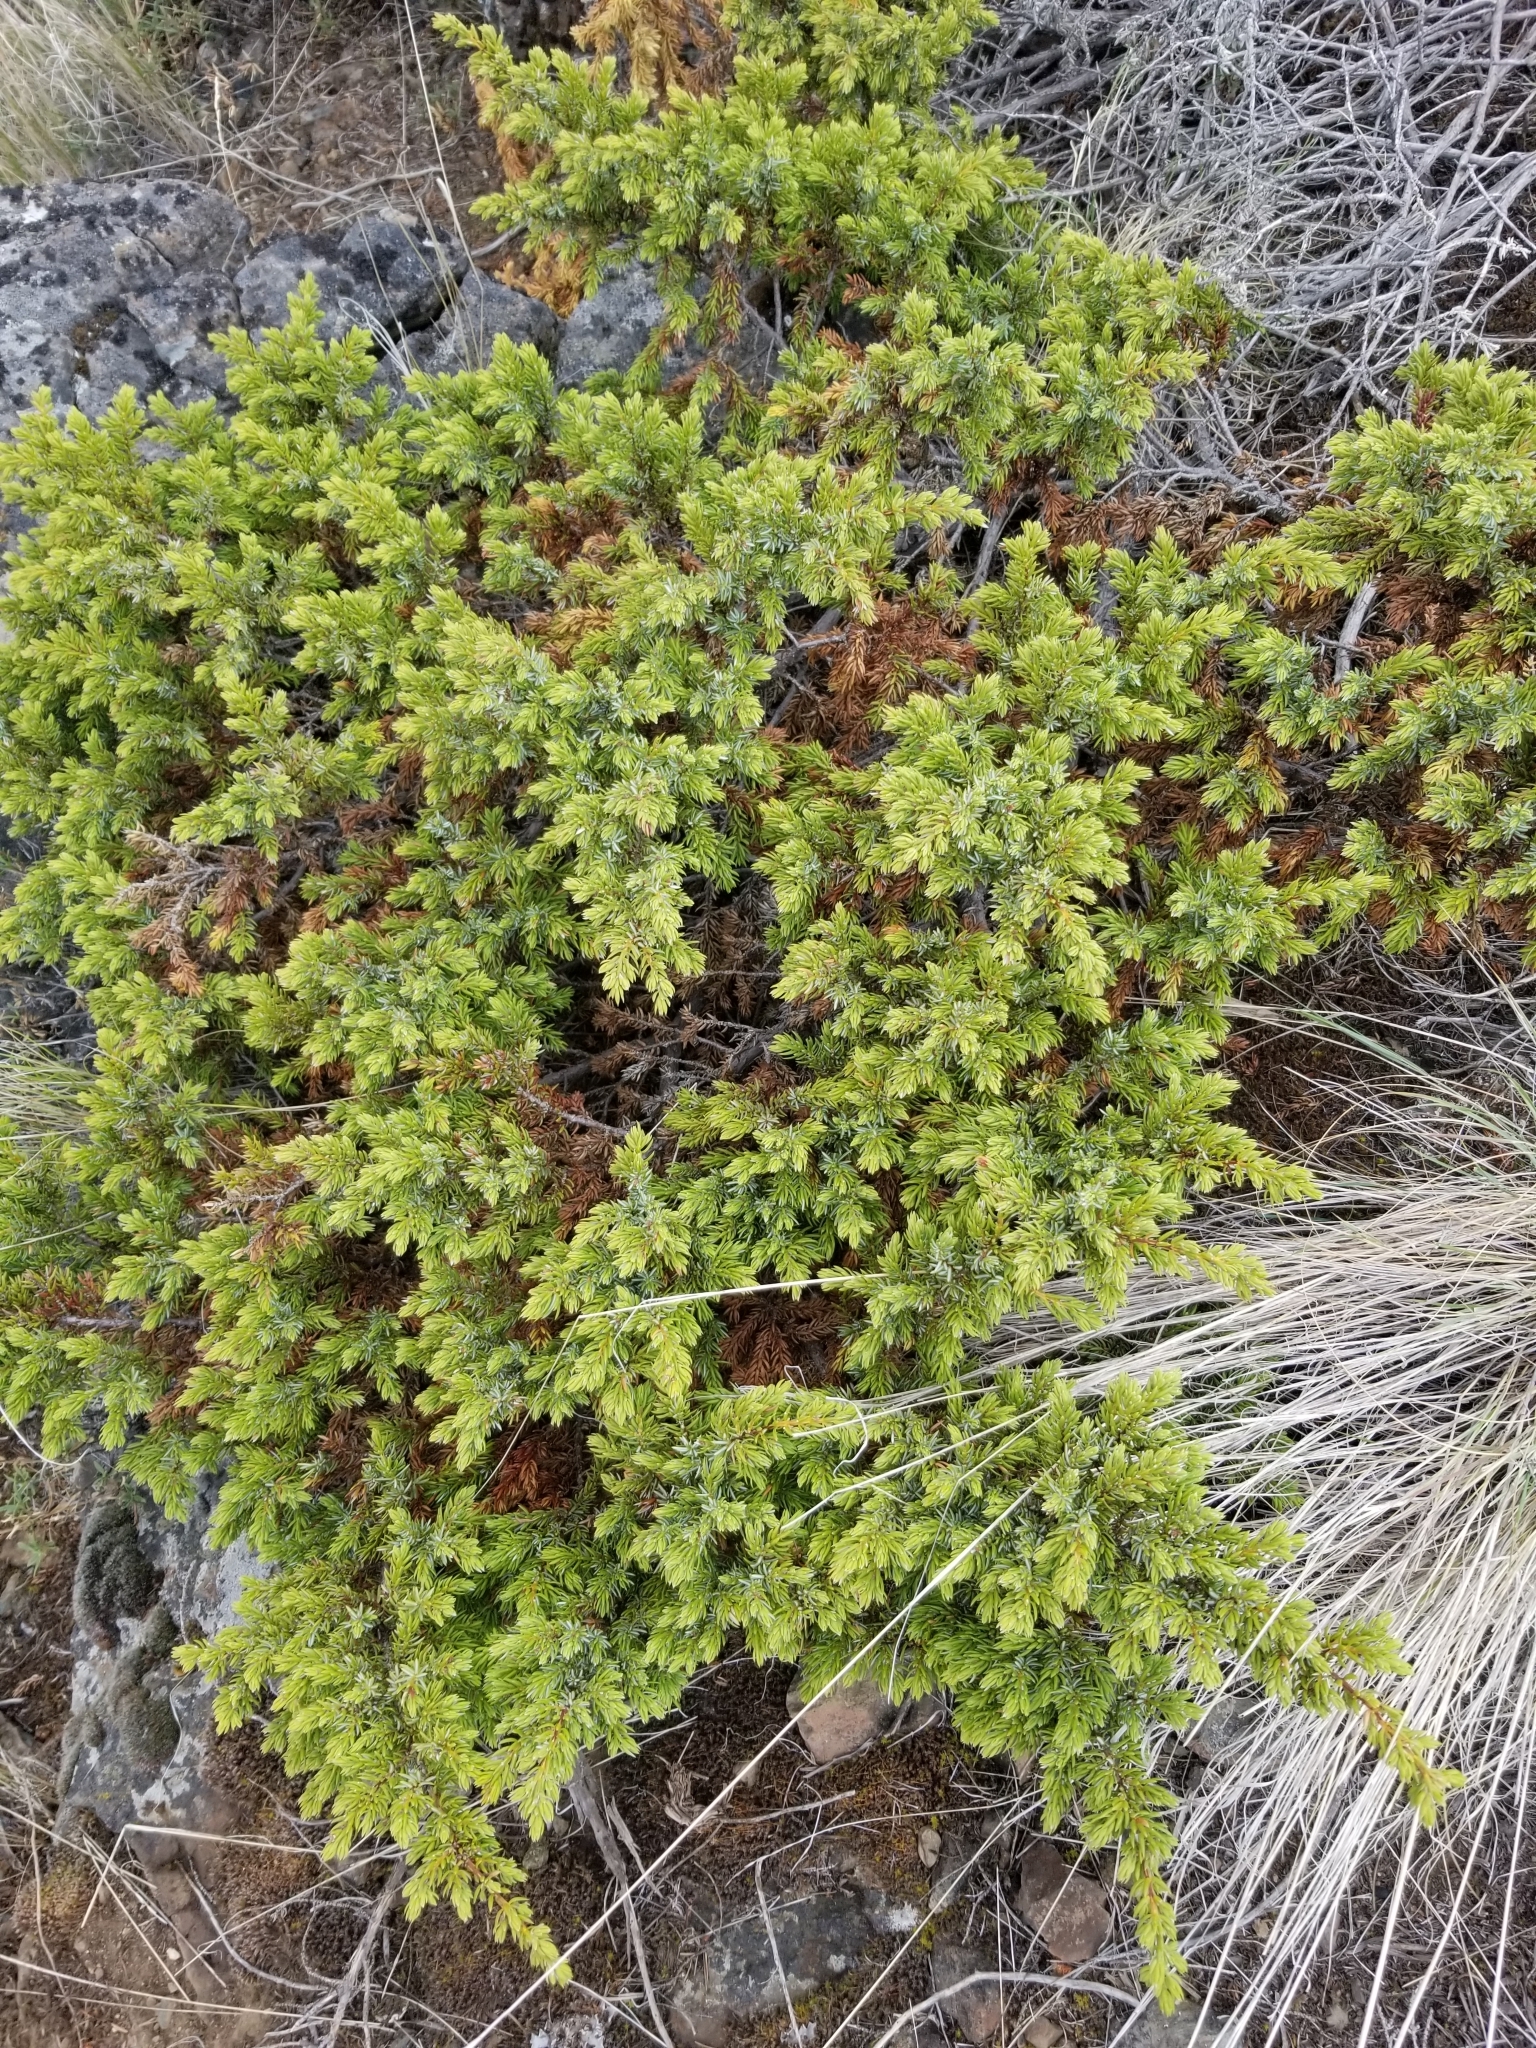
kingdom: Plantae
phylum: Tracheophyta
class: Pinopsida
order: Pinales
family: Cupressaceae
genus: Juniperus
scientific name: Juniperus communis
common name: Common juniper
